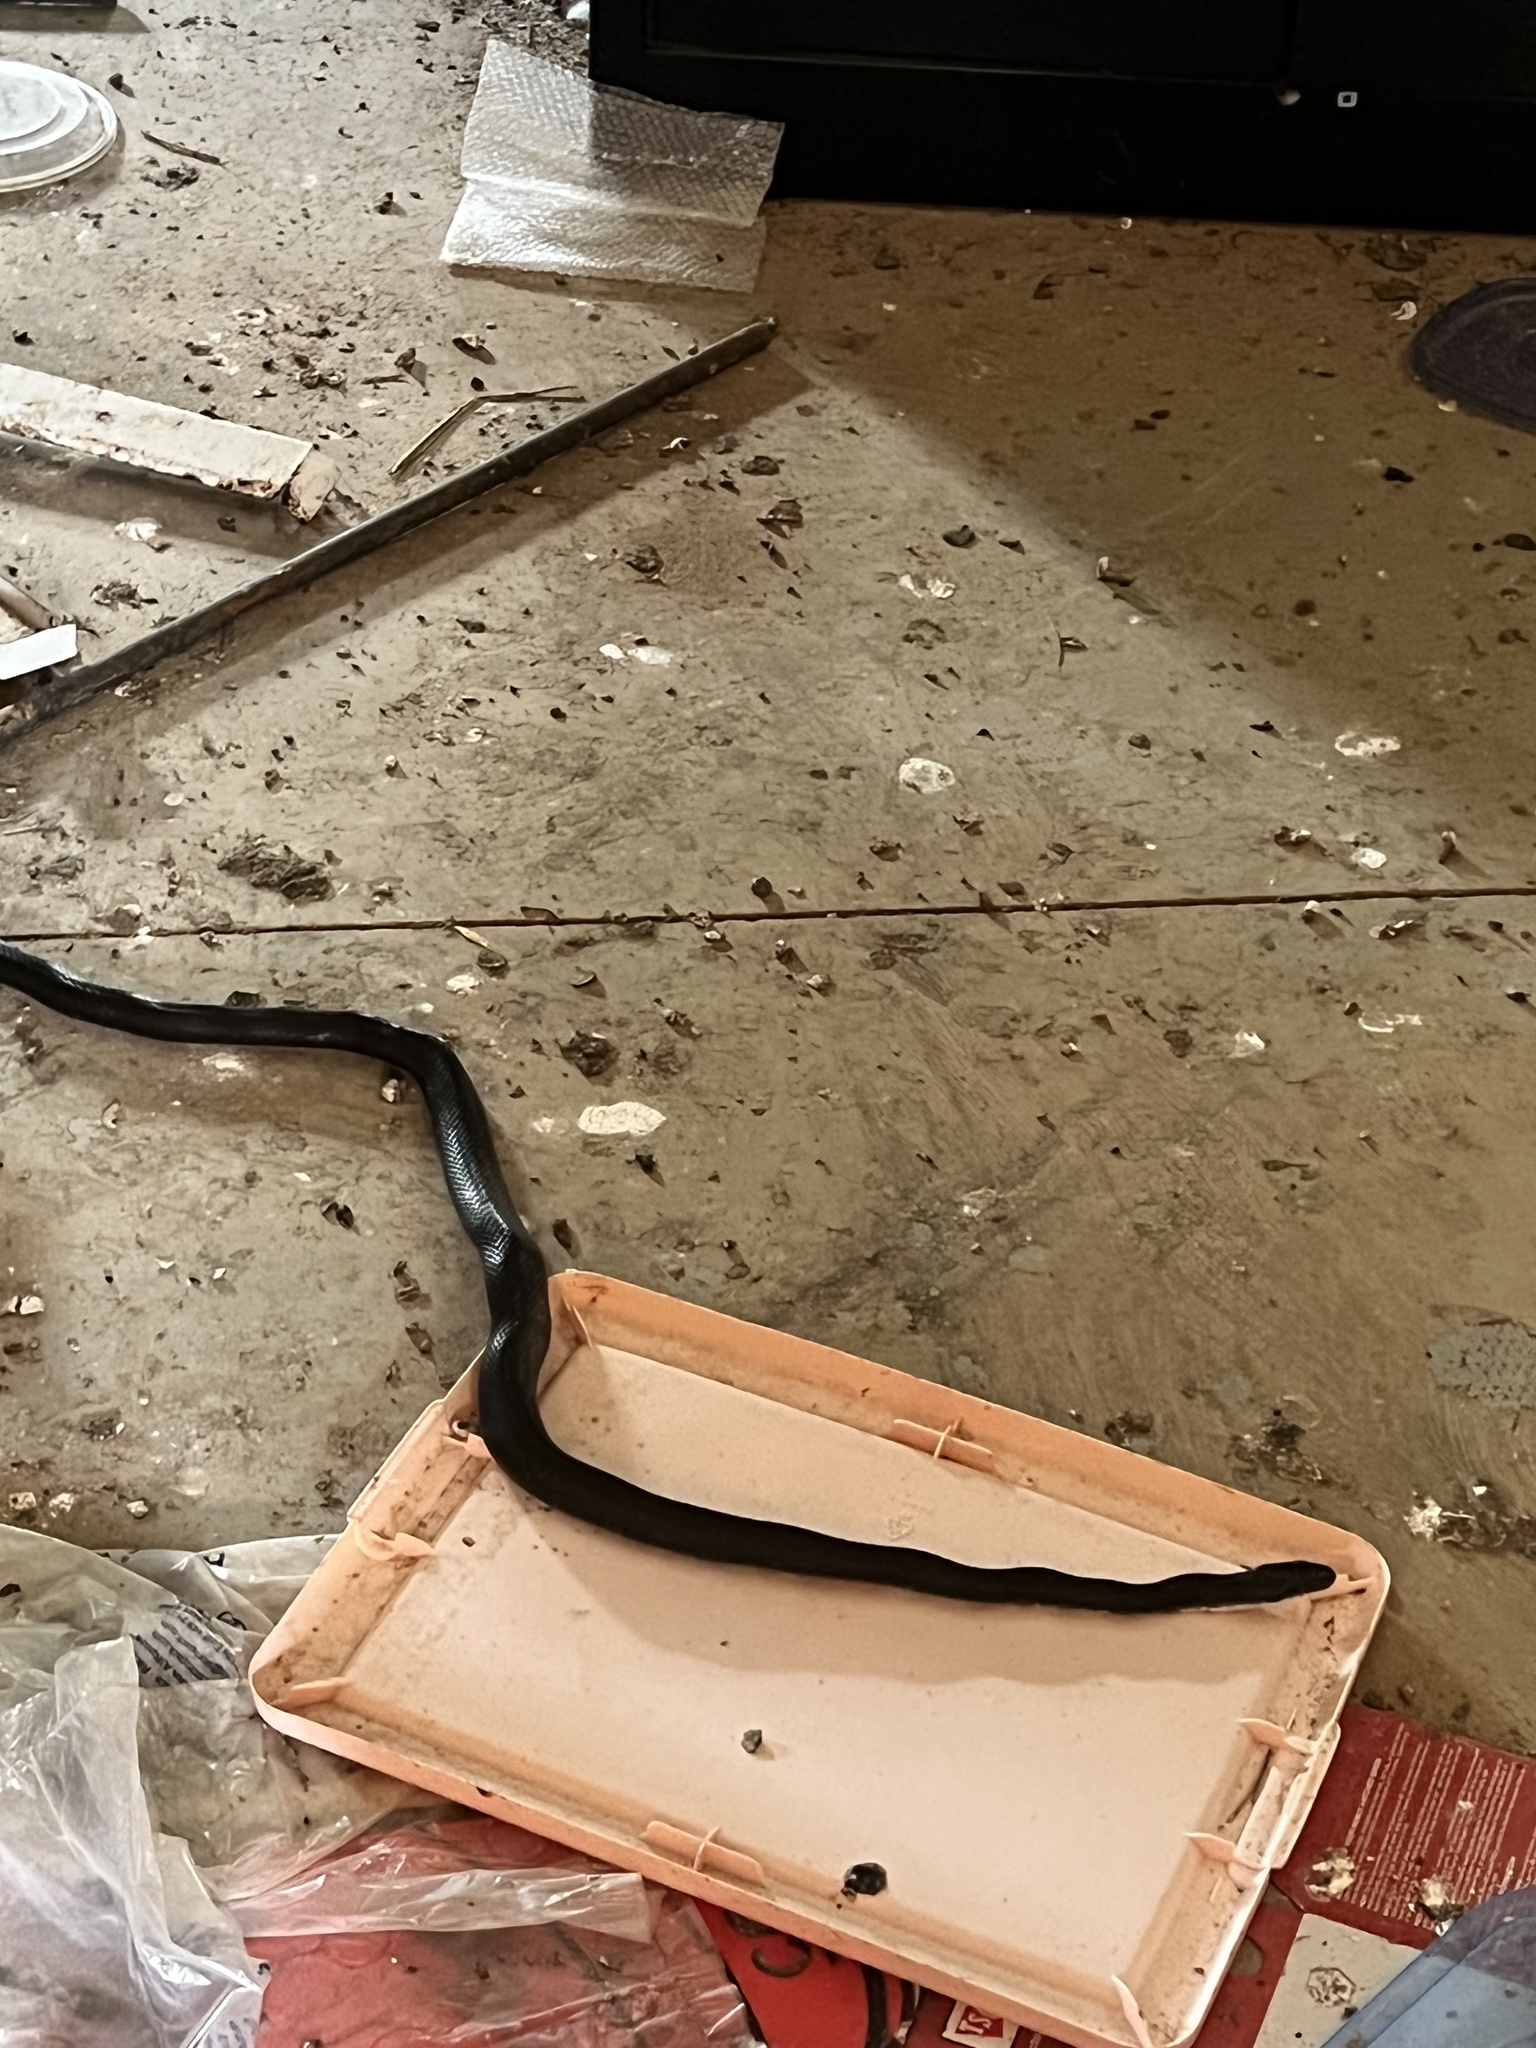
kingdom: Animalia
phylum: Chordata
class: Squamata
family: Colubridae
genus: Pantherophis
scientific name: Pantherophis alleghaniensis
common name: Eastern rat snake
